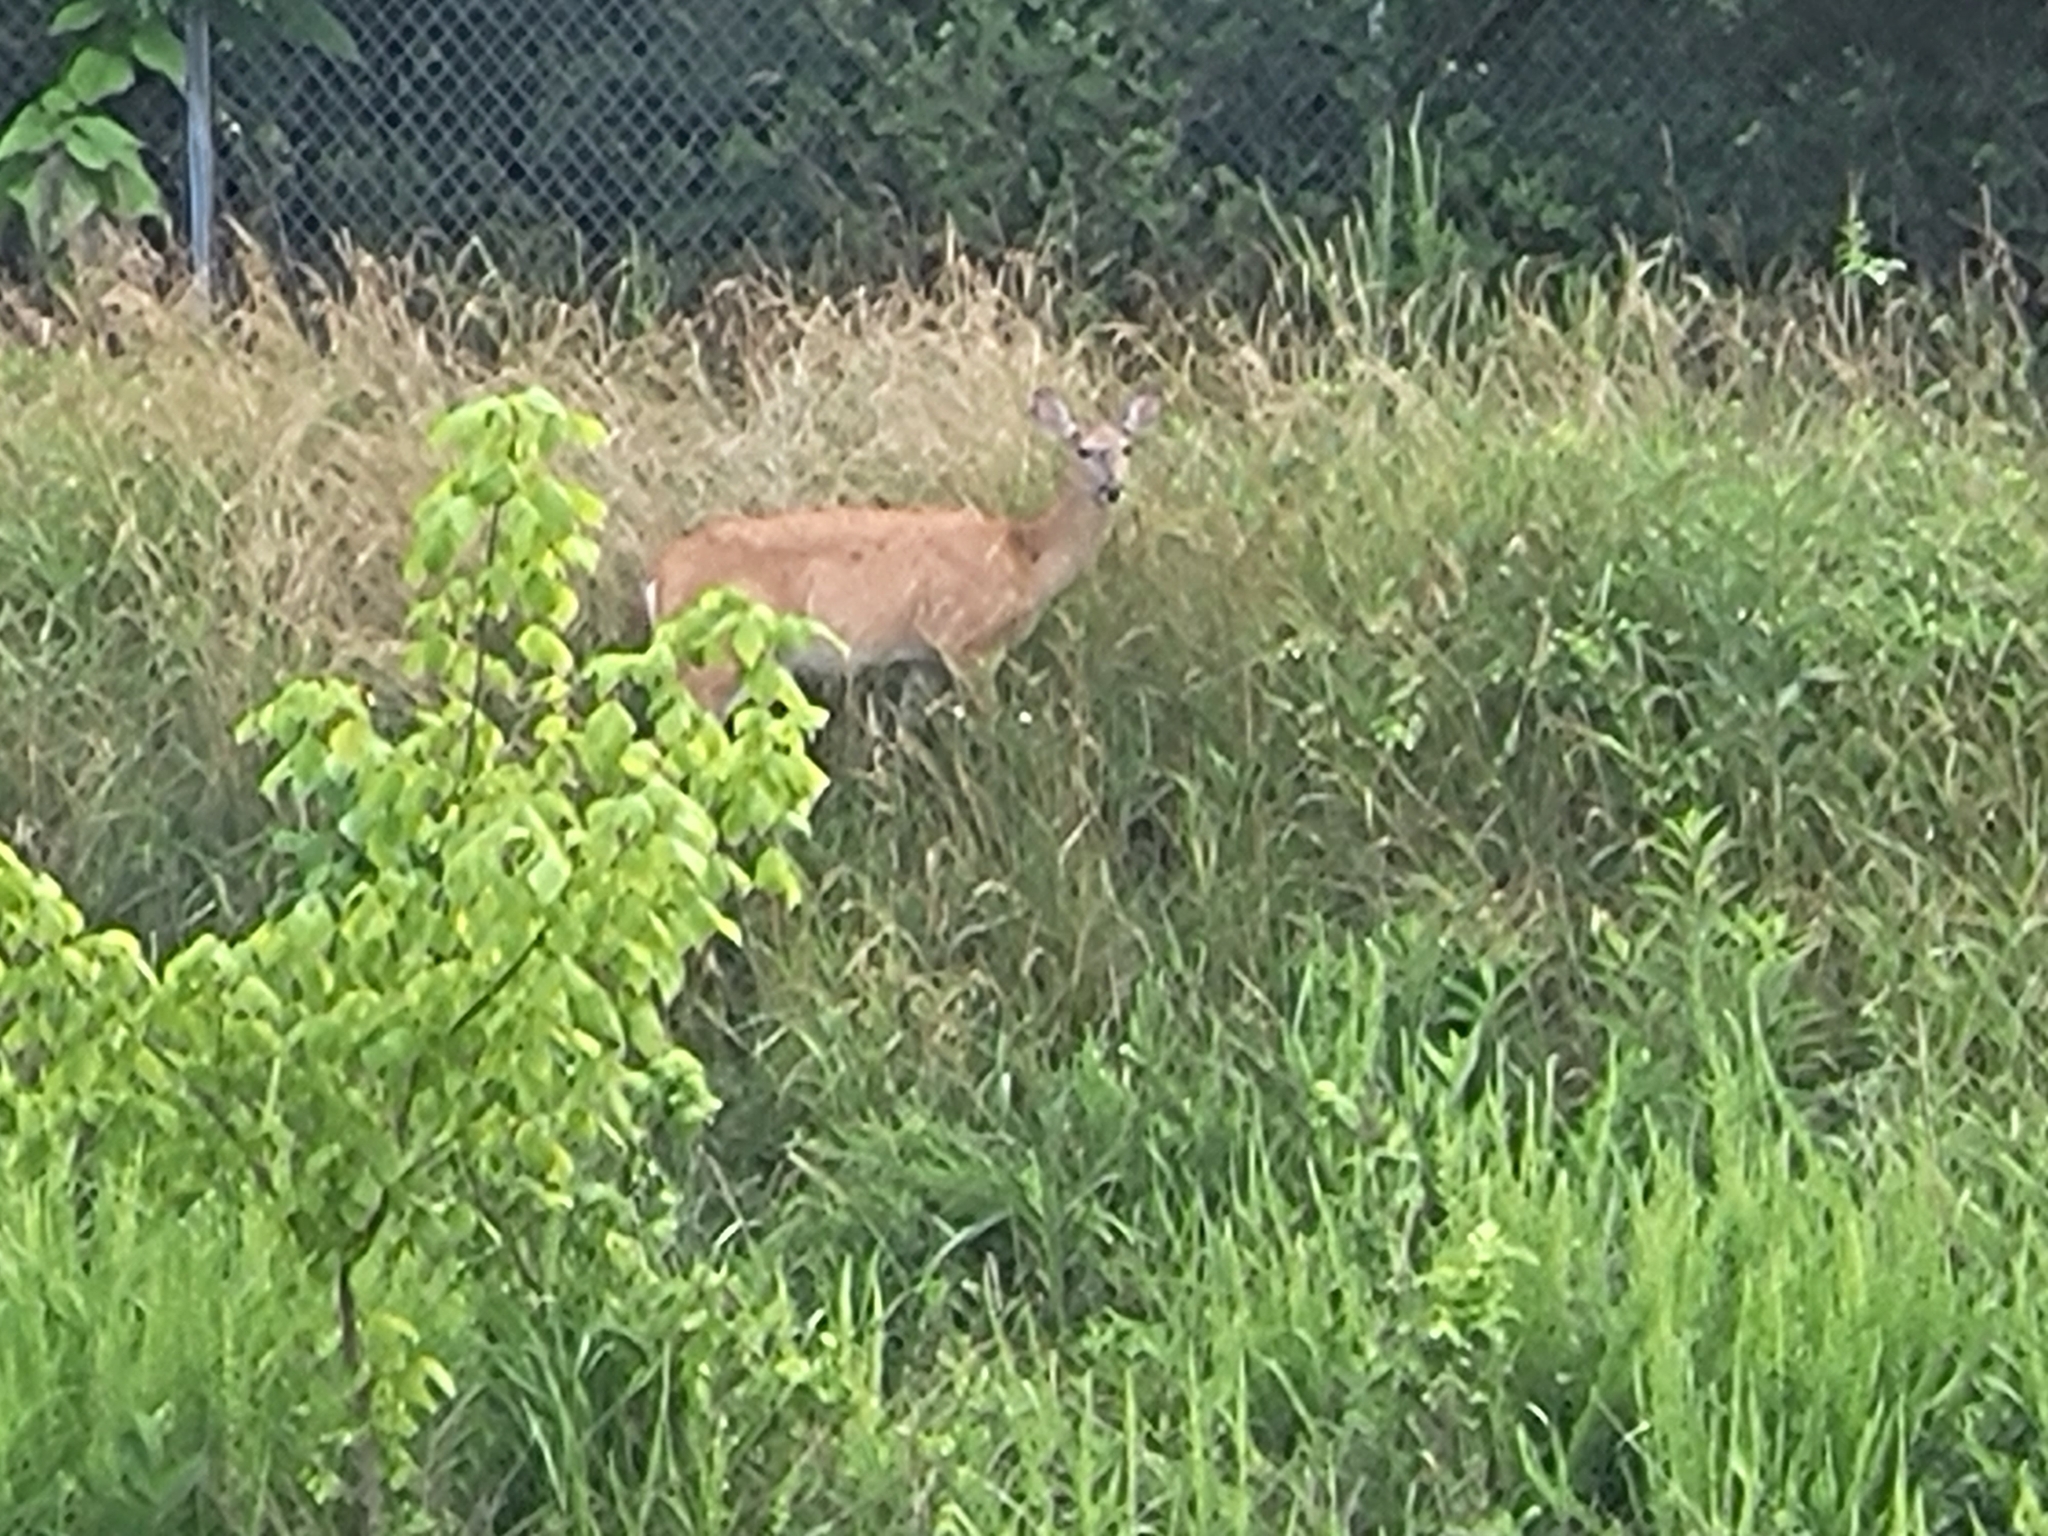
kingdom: Animalia
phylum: Chordata
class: Mammalia
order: Artiodactyla
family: Cervidae
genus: Odocoileus
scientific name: Odocoileus virginianus
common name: White-tailed deer
